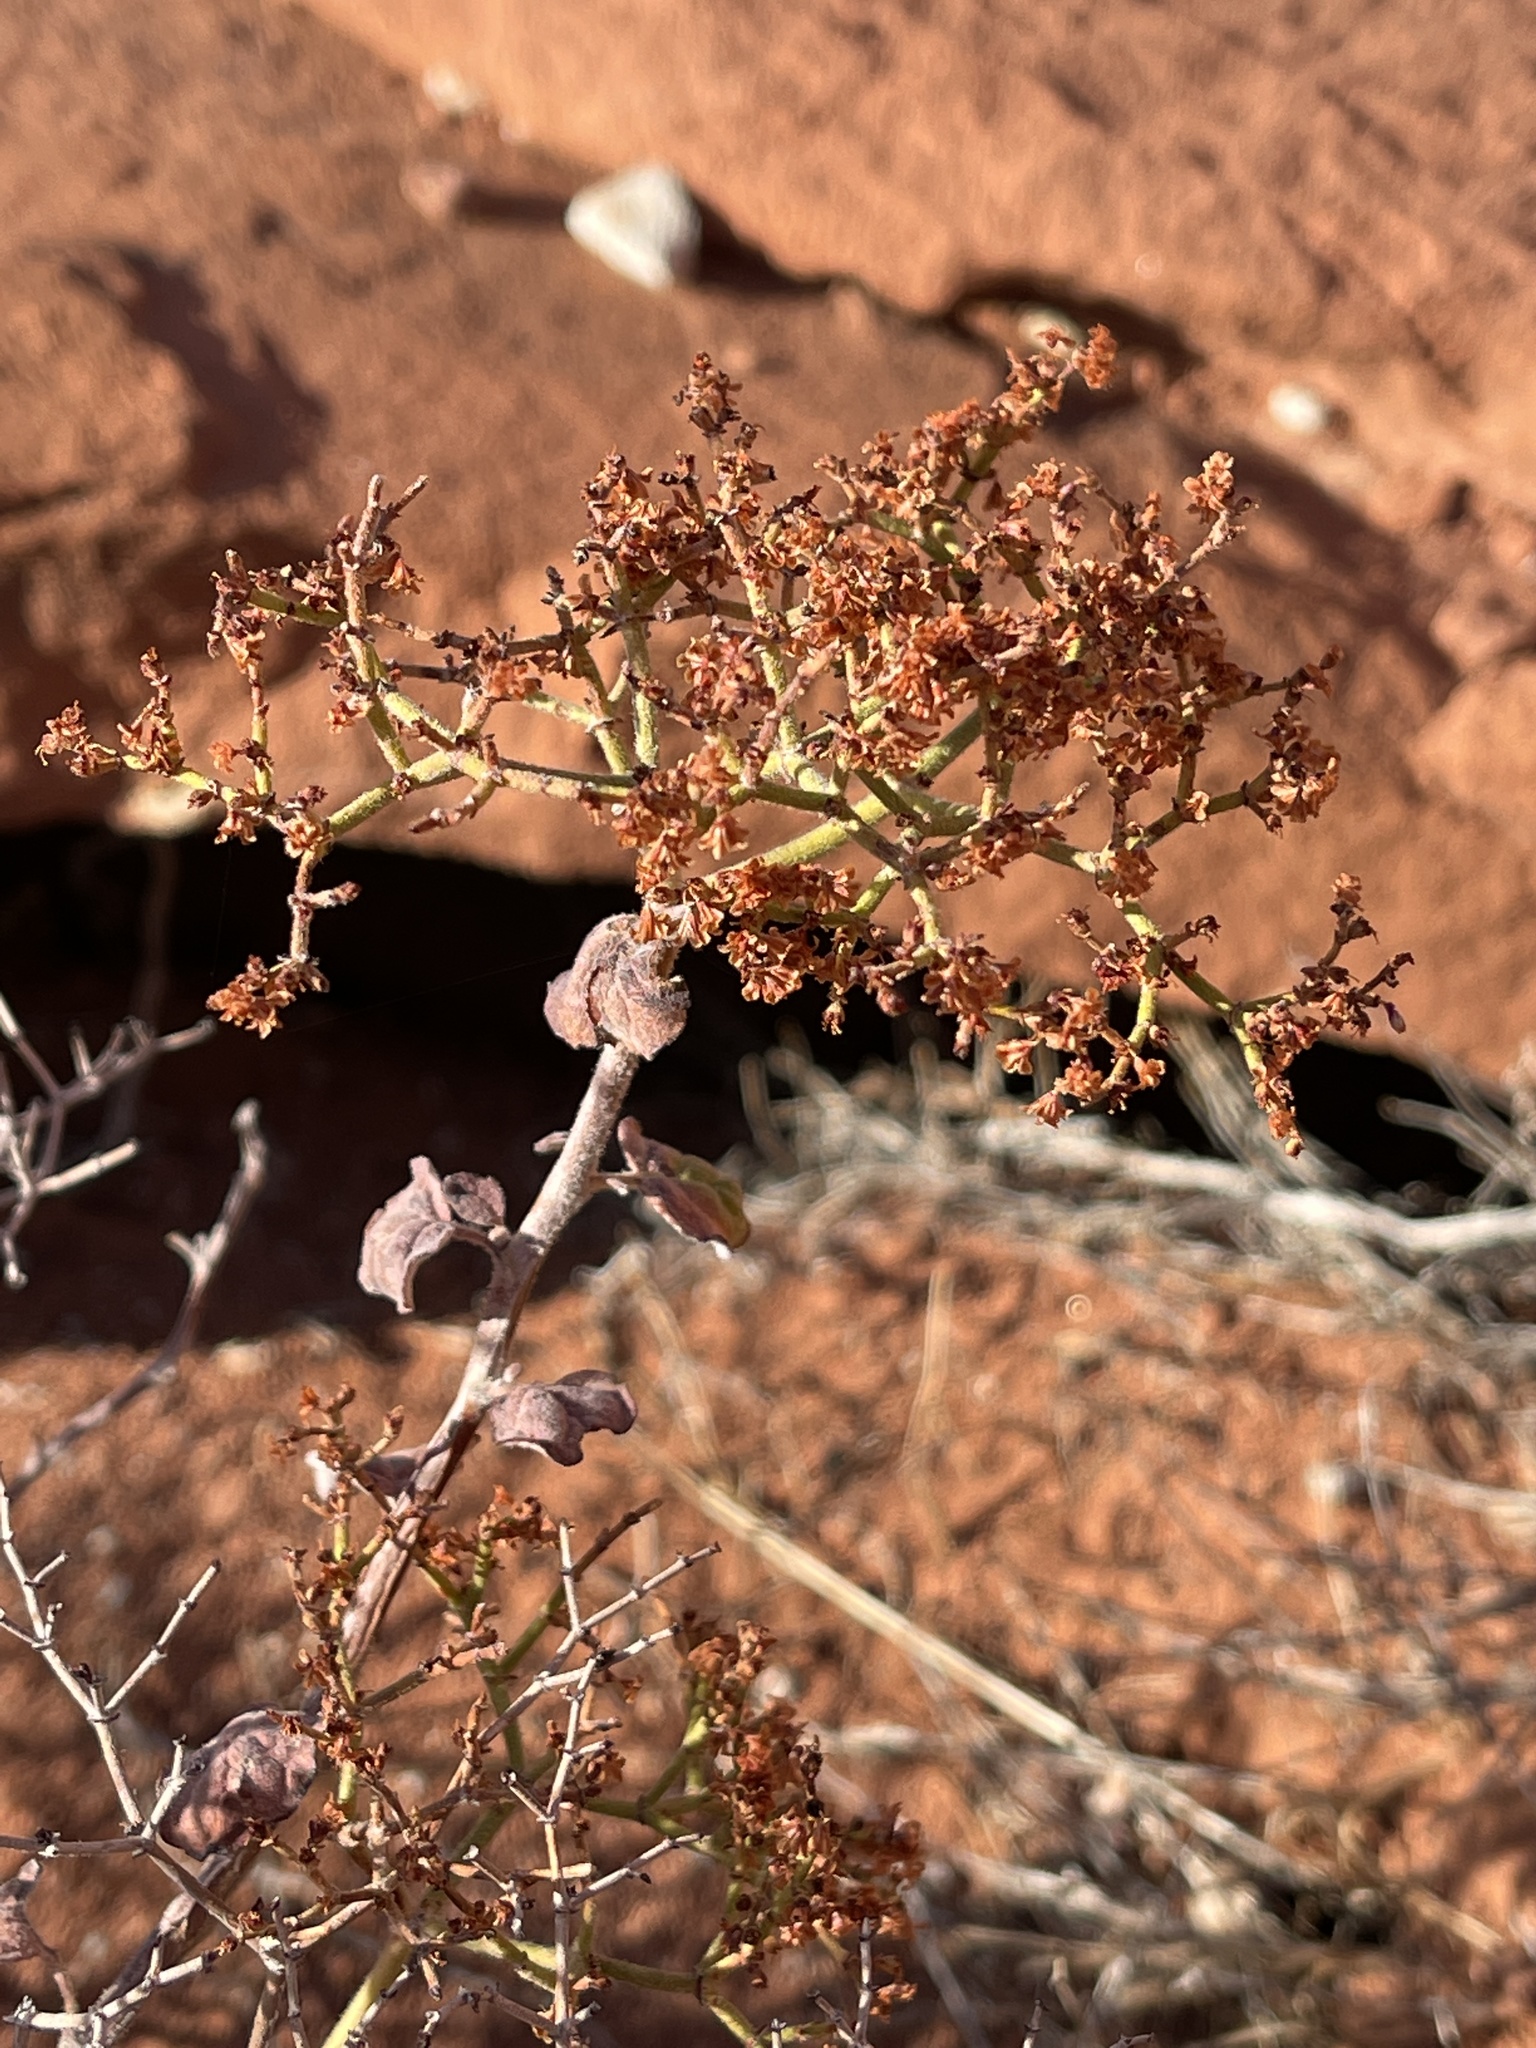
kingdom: Plantae
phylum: Tracheophyta
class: Magnoliopsida
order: Caryophyllales
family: Polygonaceae
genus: Eriogonum
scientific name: Eriogonum corymbosum
